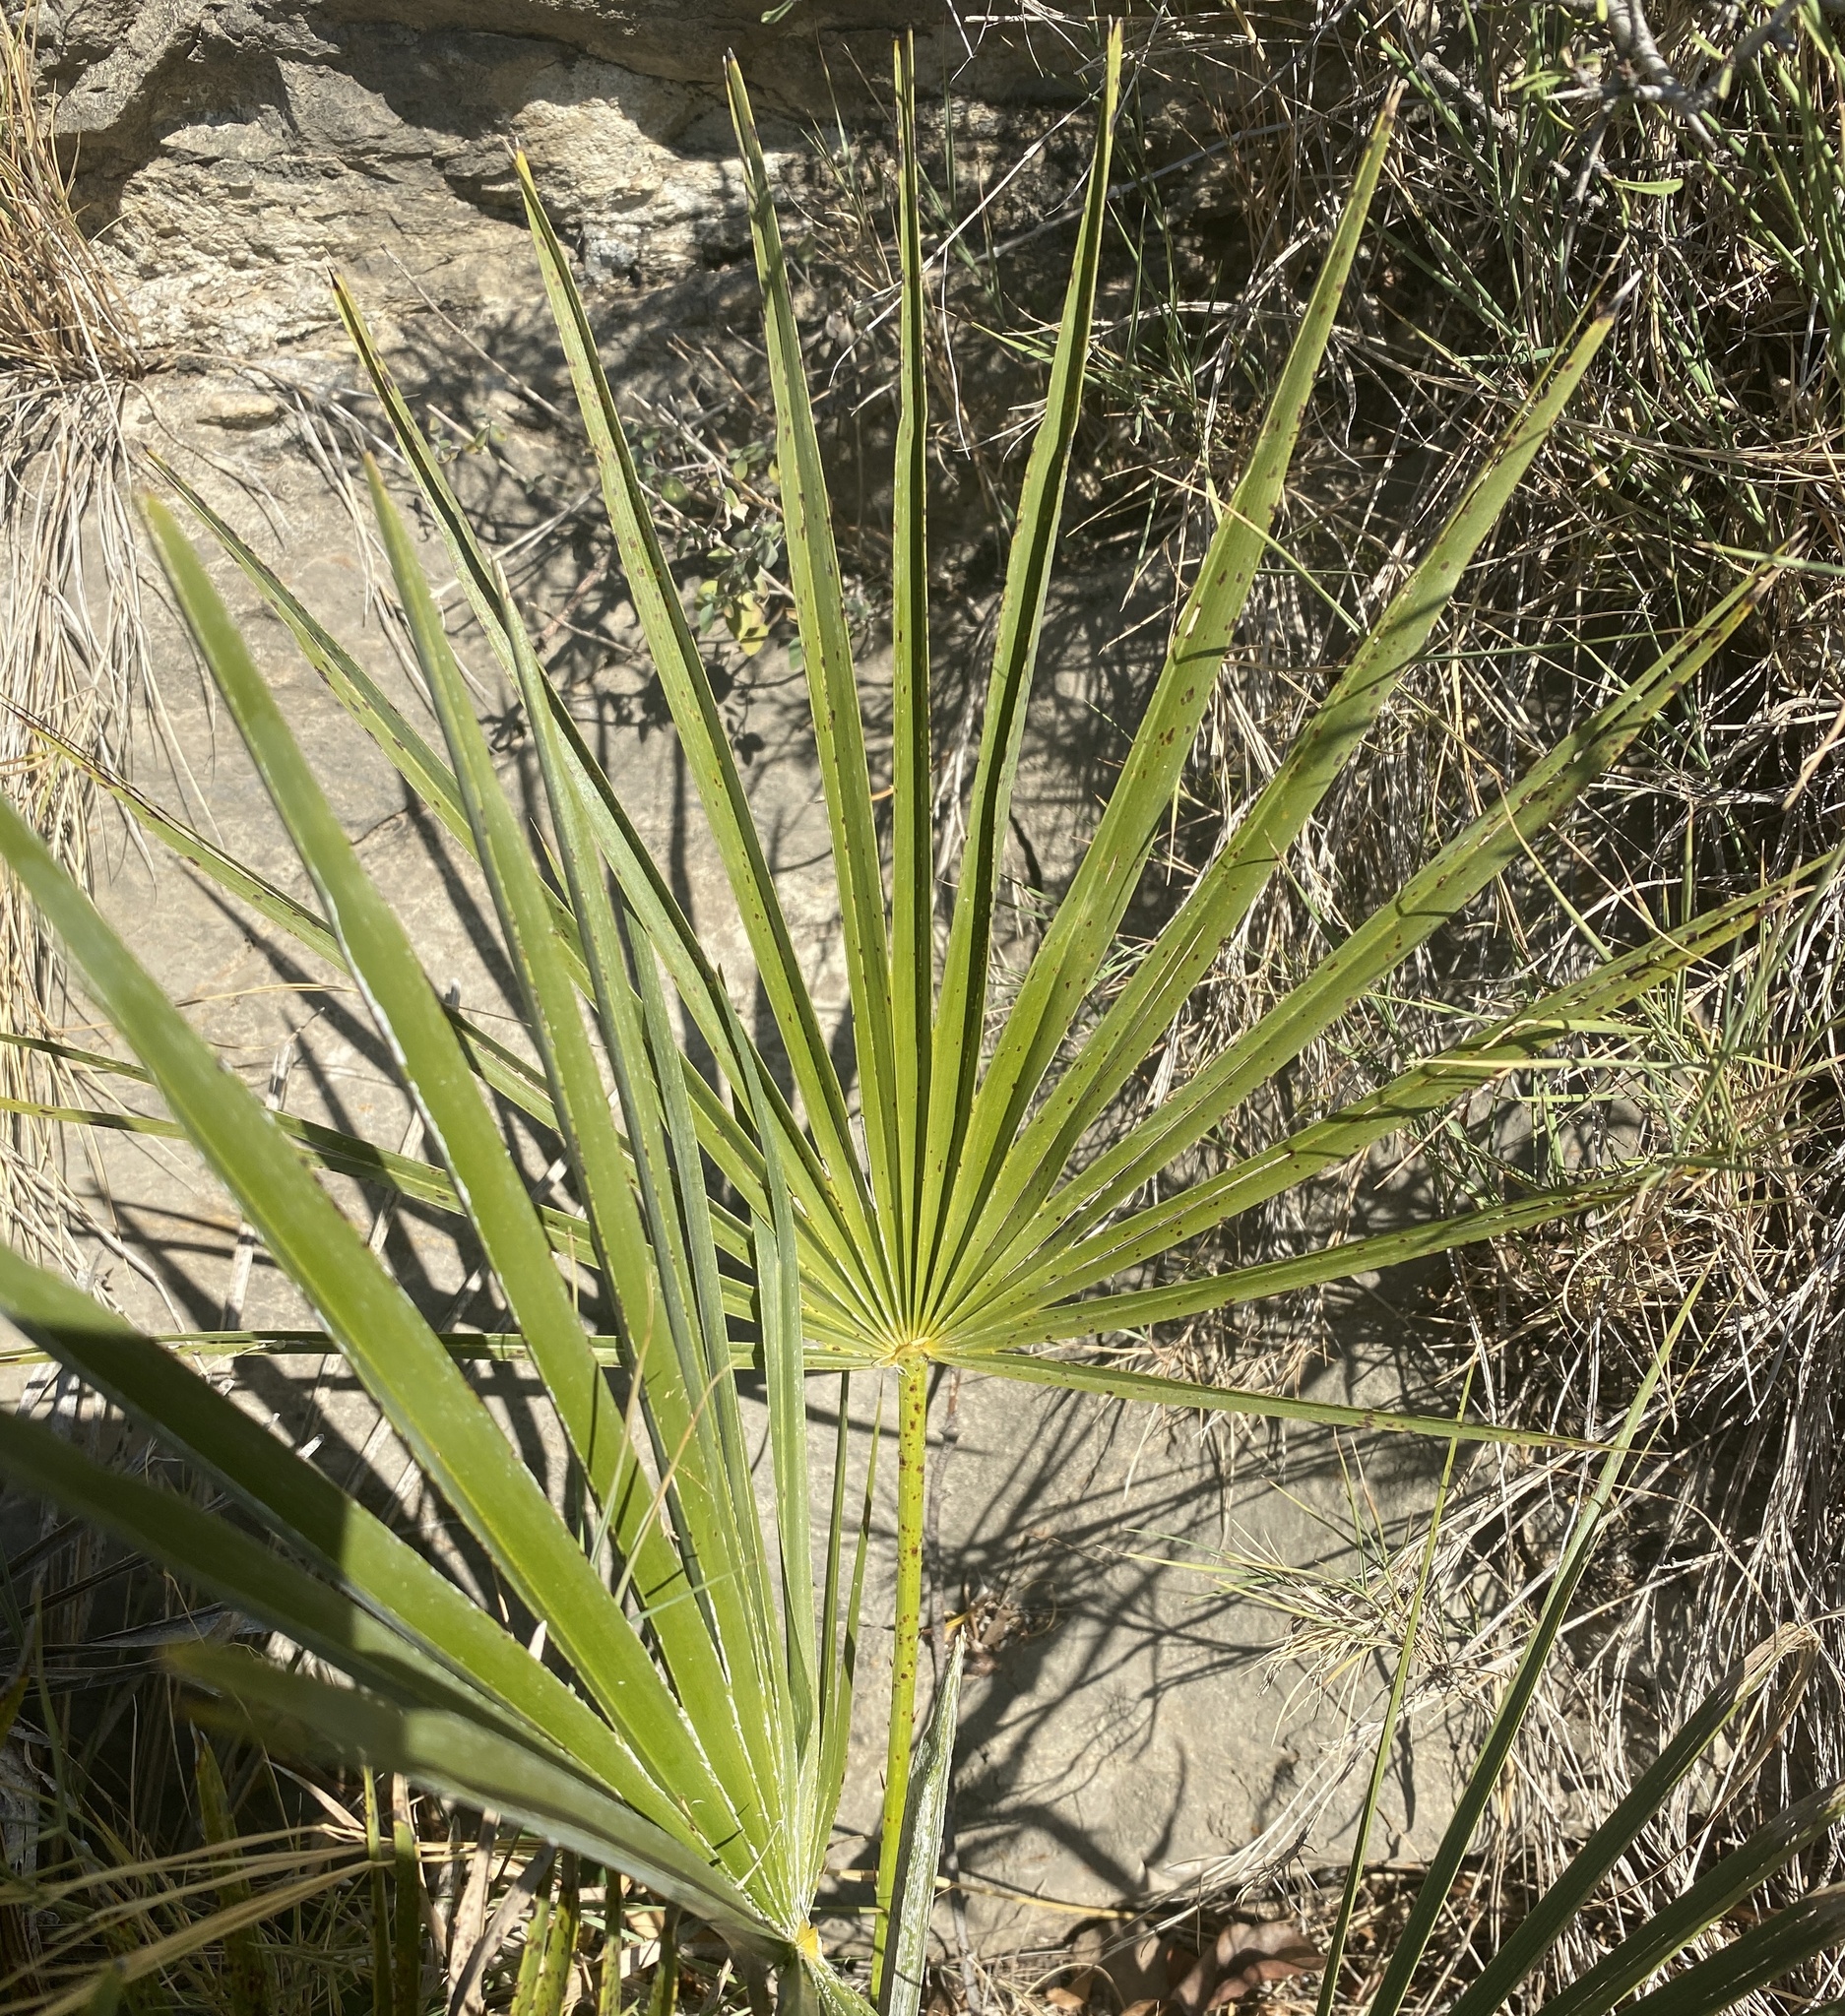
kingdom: Plantae
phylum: Tracheophyta
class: Liliopsida
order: Arecales
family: Arecaceae
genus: Chamaerops
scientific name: Chamaerops humilis
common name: Dwarf fan palm
